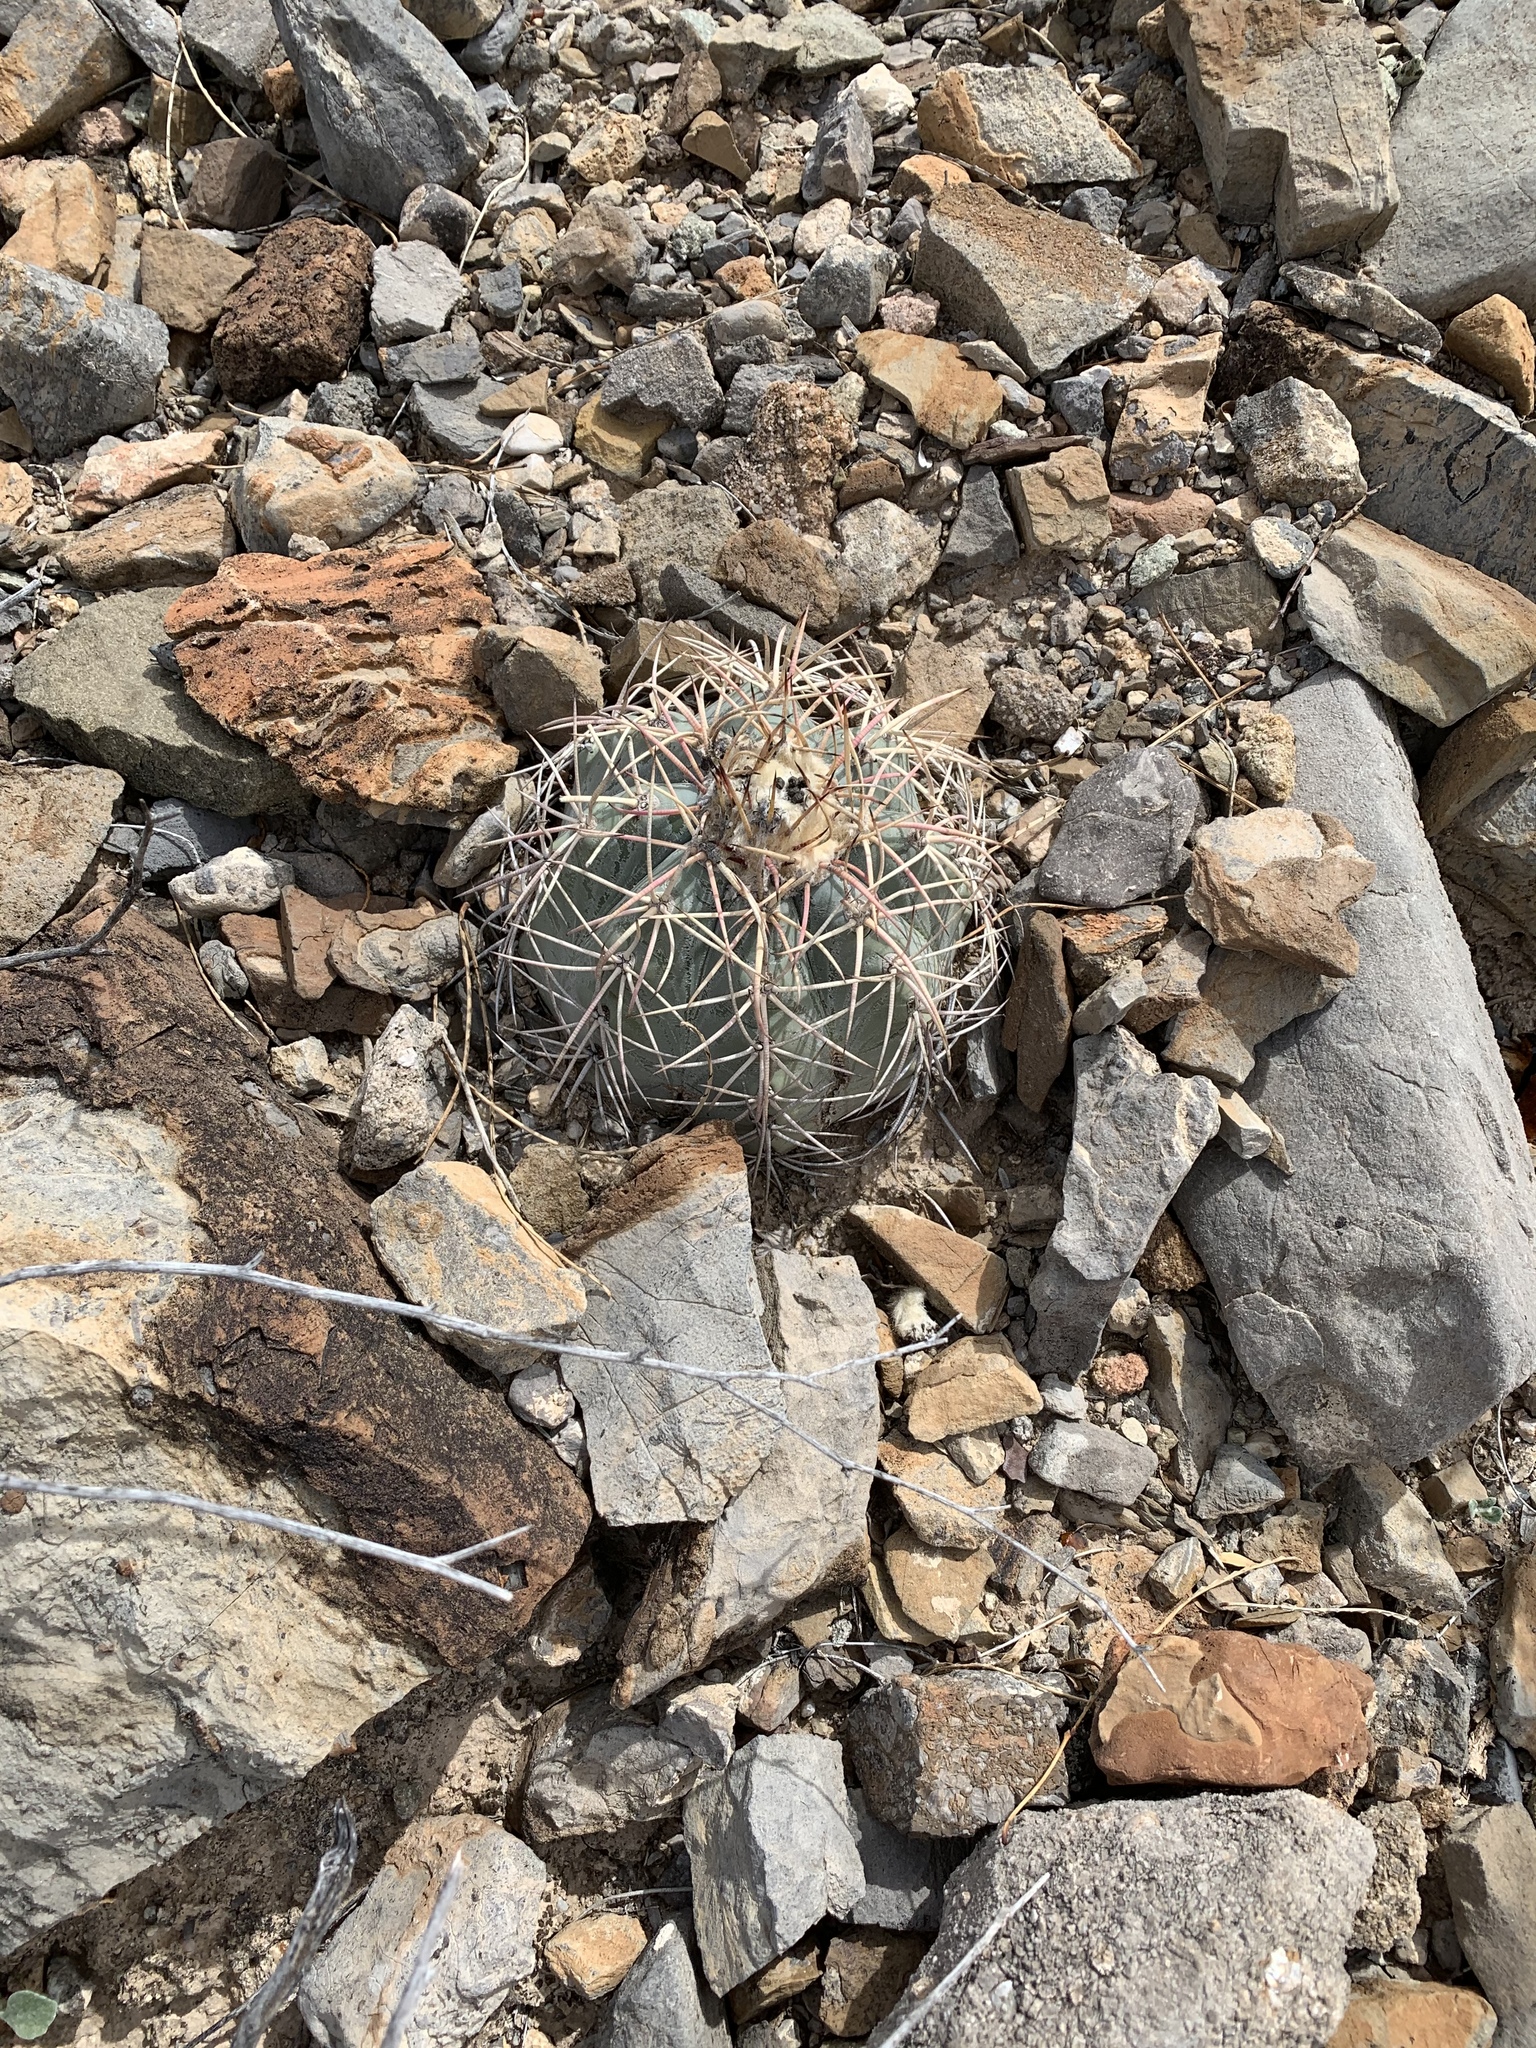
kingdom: Plantae
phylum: Tracheophyta
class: Magnoliopsida
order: Caryophyllales
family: Cactaceae
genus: Echinocactus
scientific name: Echinocactus horizonthalonius
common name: Devilshead
